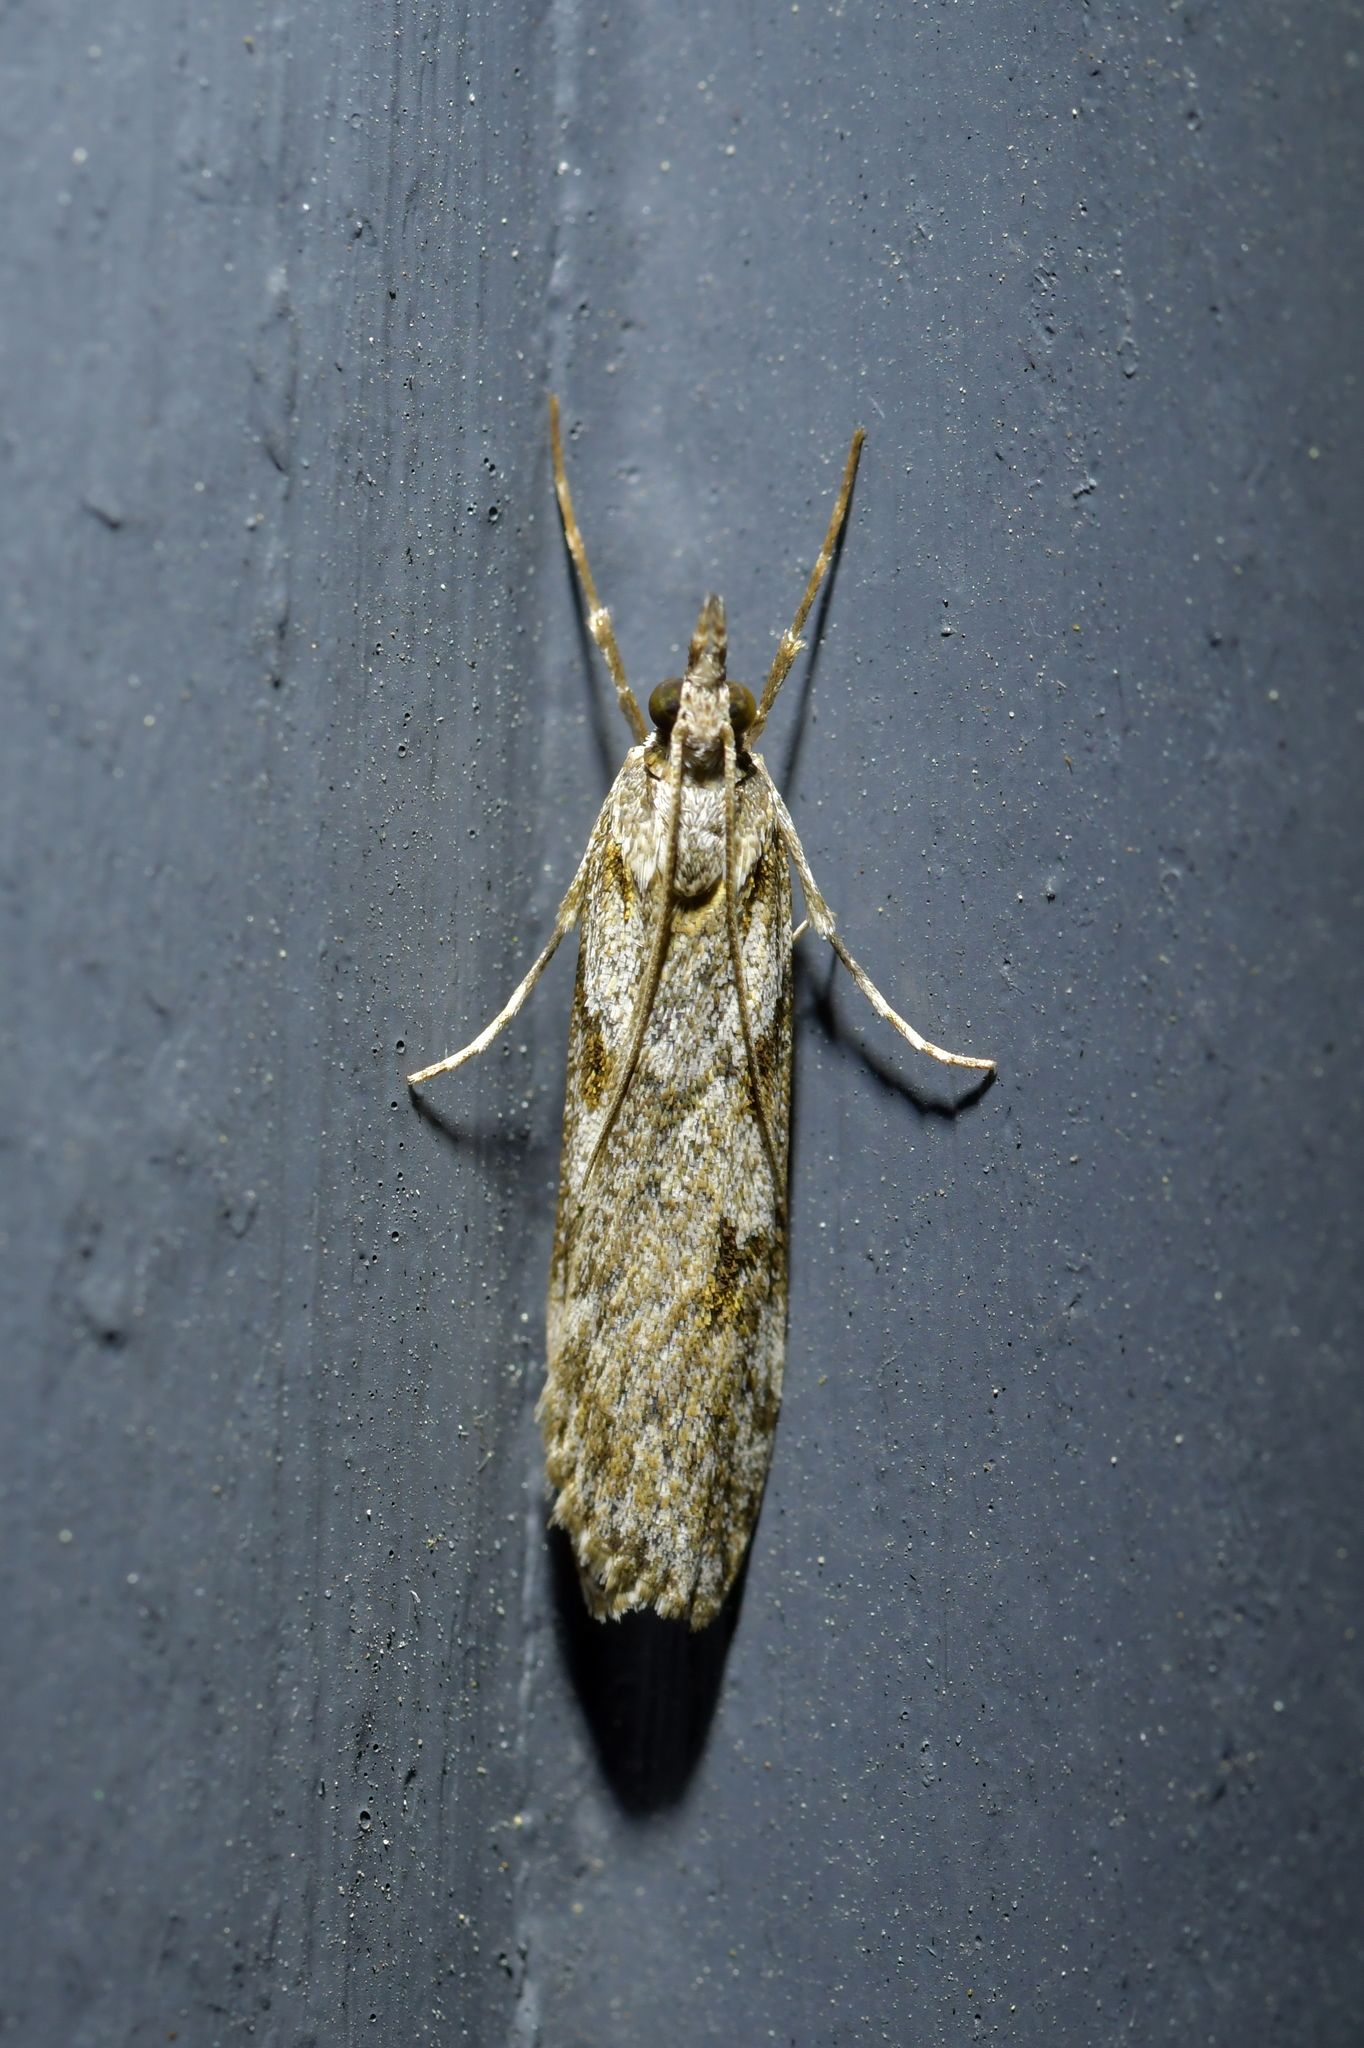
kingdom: Animalia
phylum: Arthropoda
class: Insecta
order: Lepidoptera
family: Crambidae
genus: Scoparia
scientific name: Scoparia halopis
